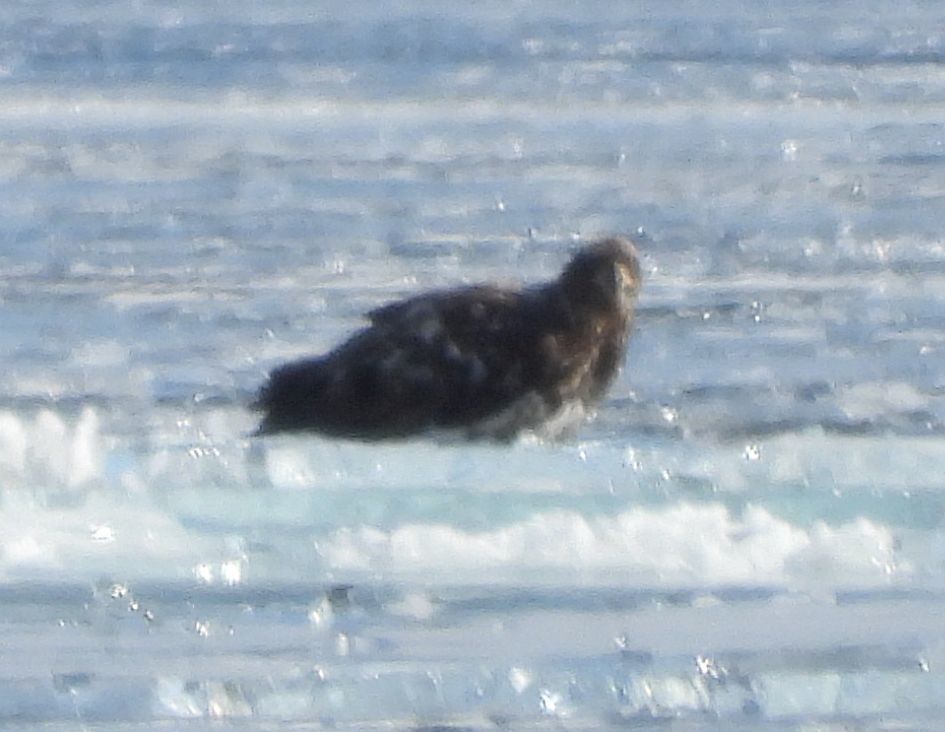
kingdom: Animalia
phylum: Chordata
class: Aves
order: Accipitriformes
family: Accipitridae
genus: Haliaeetus
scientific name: Haliaeetus leucocephalus
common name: Bald eagle
